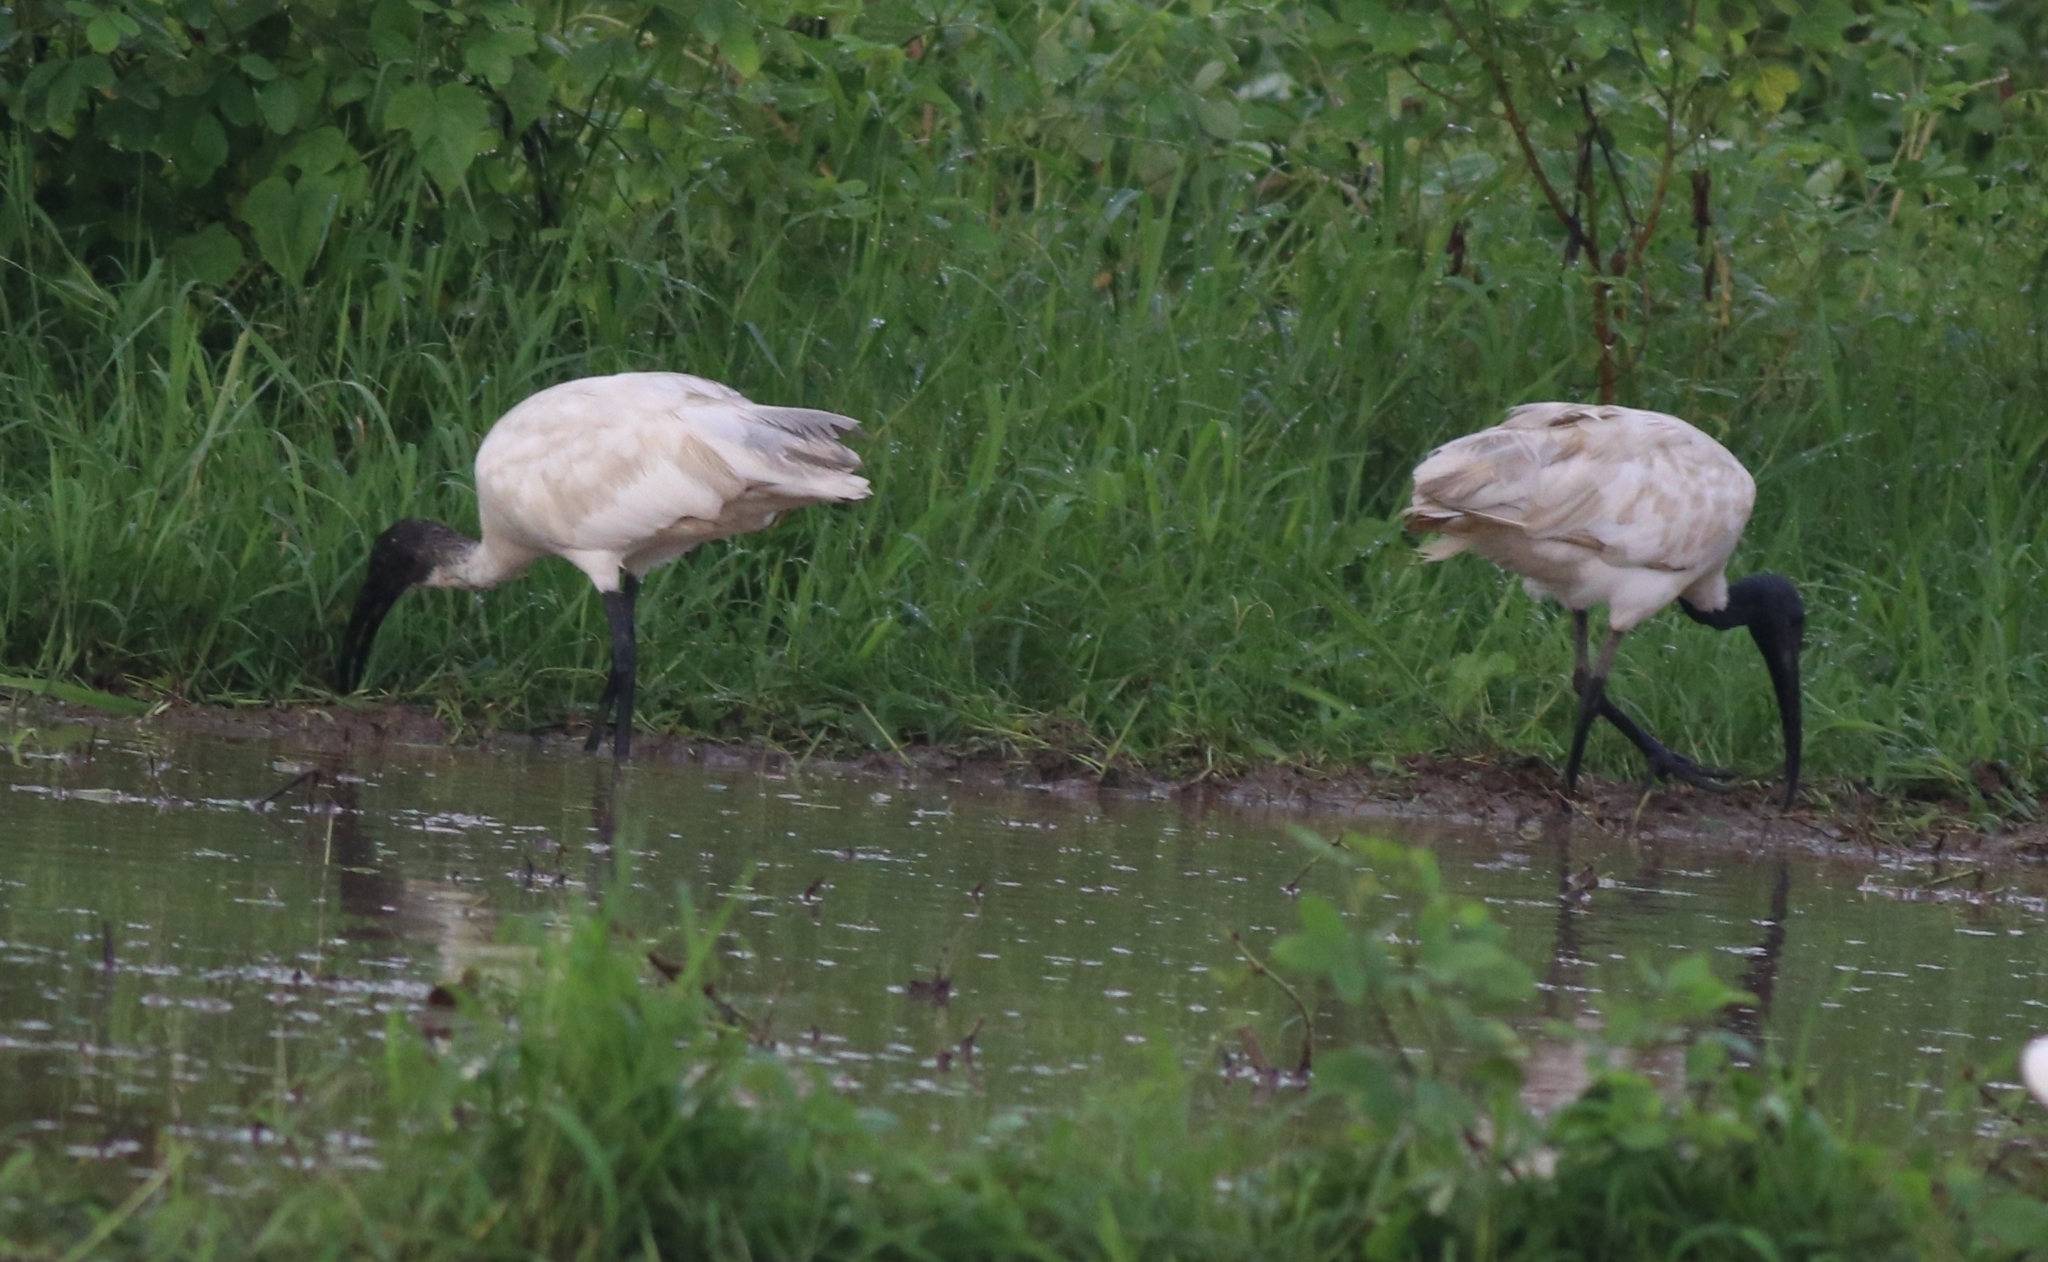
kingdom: Animalia
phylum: Chordata
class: Aves
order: Pelecaniformes
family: Threskiornithidae
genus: Threskiornis
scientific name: Threskiornis melanocephalus
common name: Black-headed ibis
